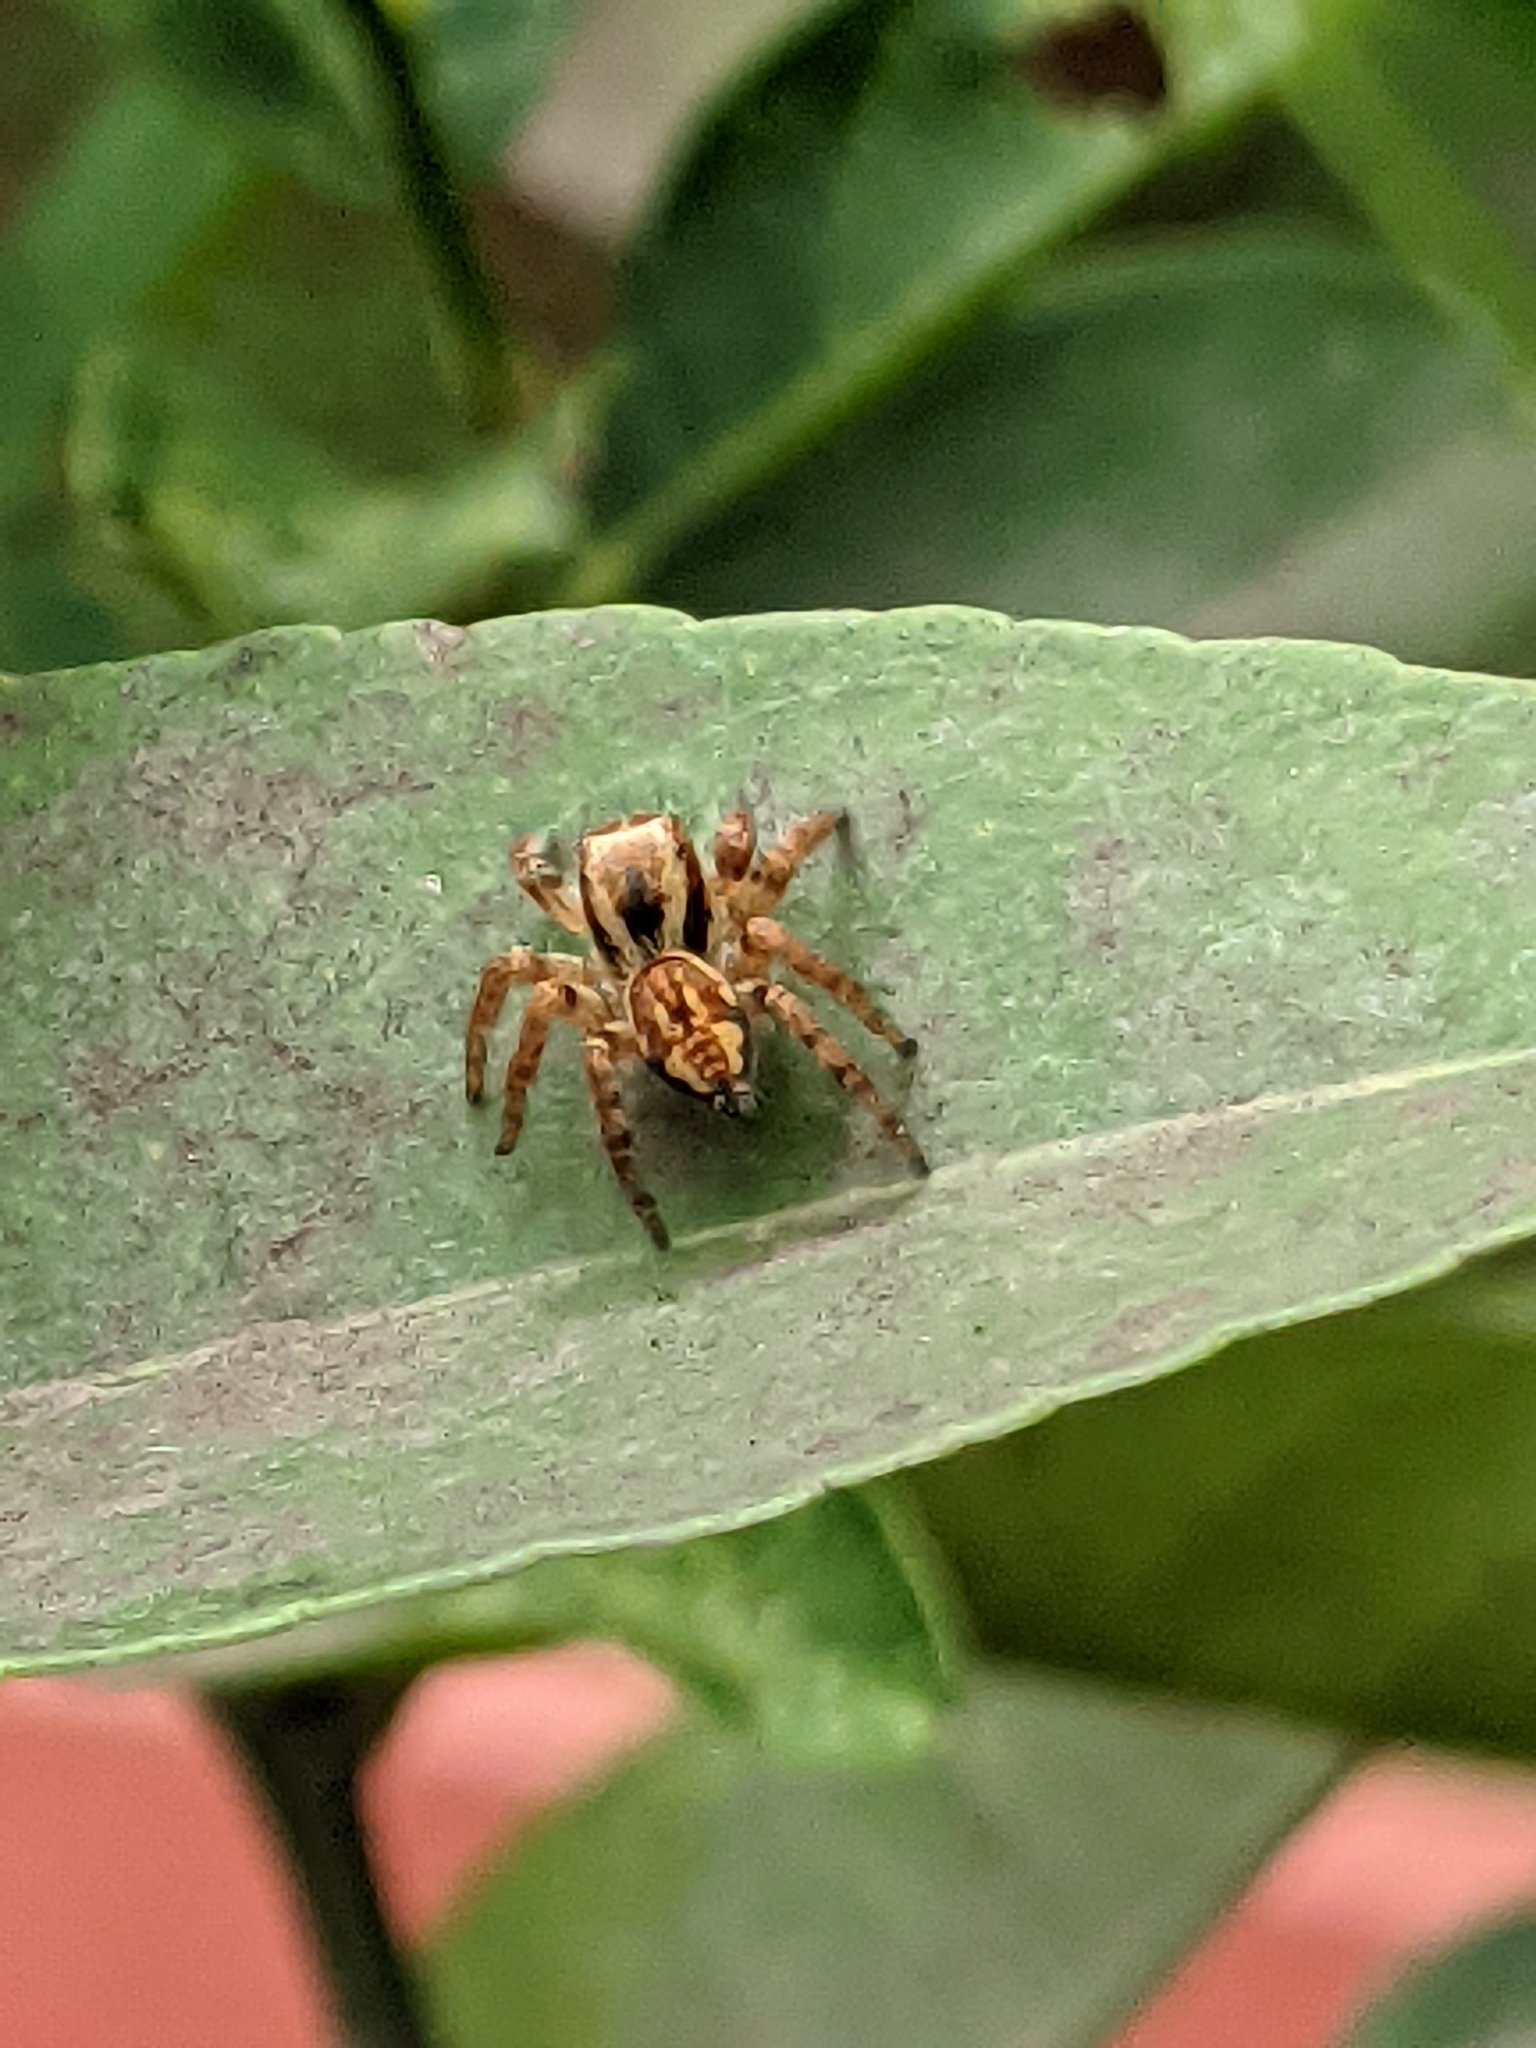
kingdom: Animalia
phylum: Arthropoda
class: Arachnida
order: Araneae
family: Salticidae
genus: Carrhotus
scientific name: Carrhotus viduus
